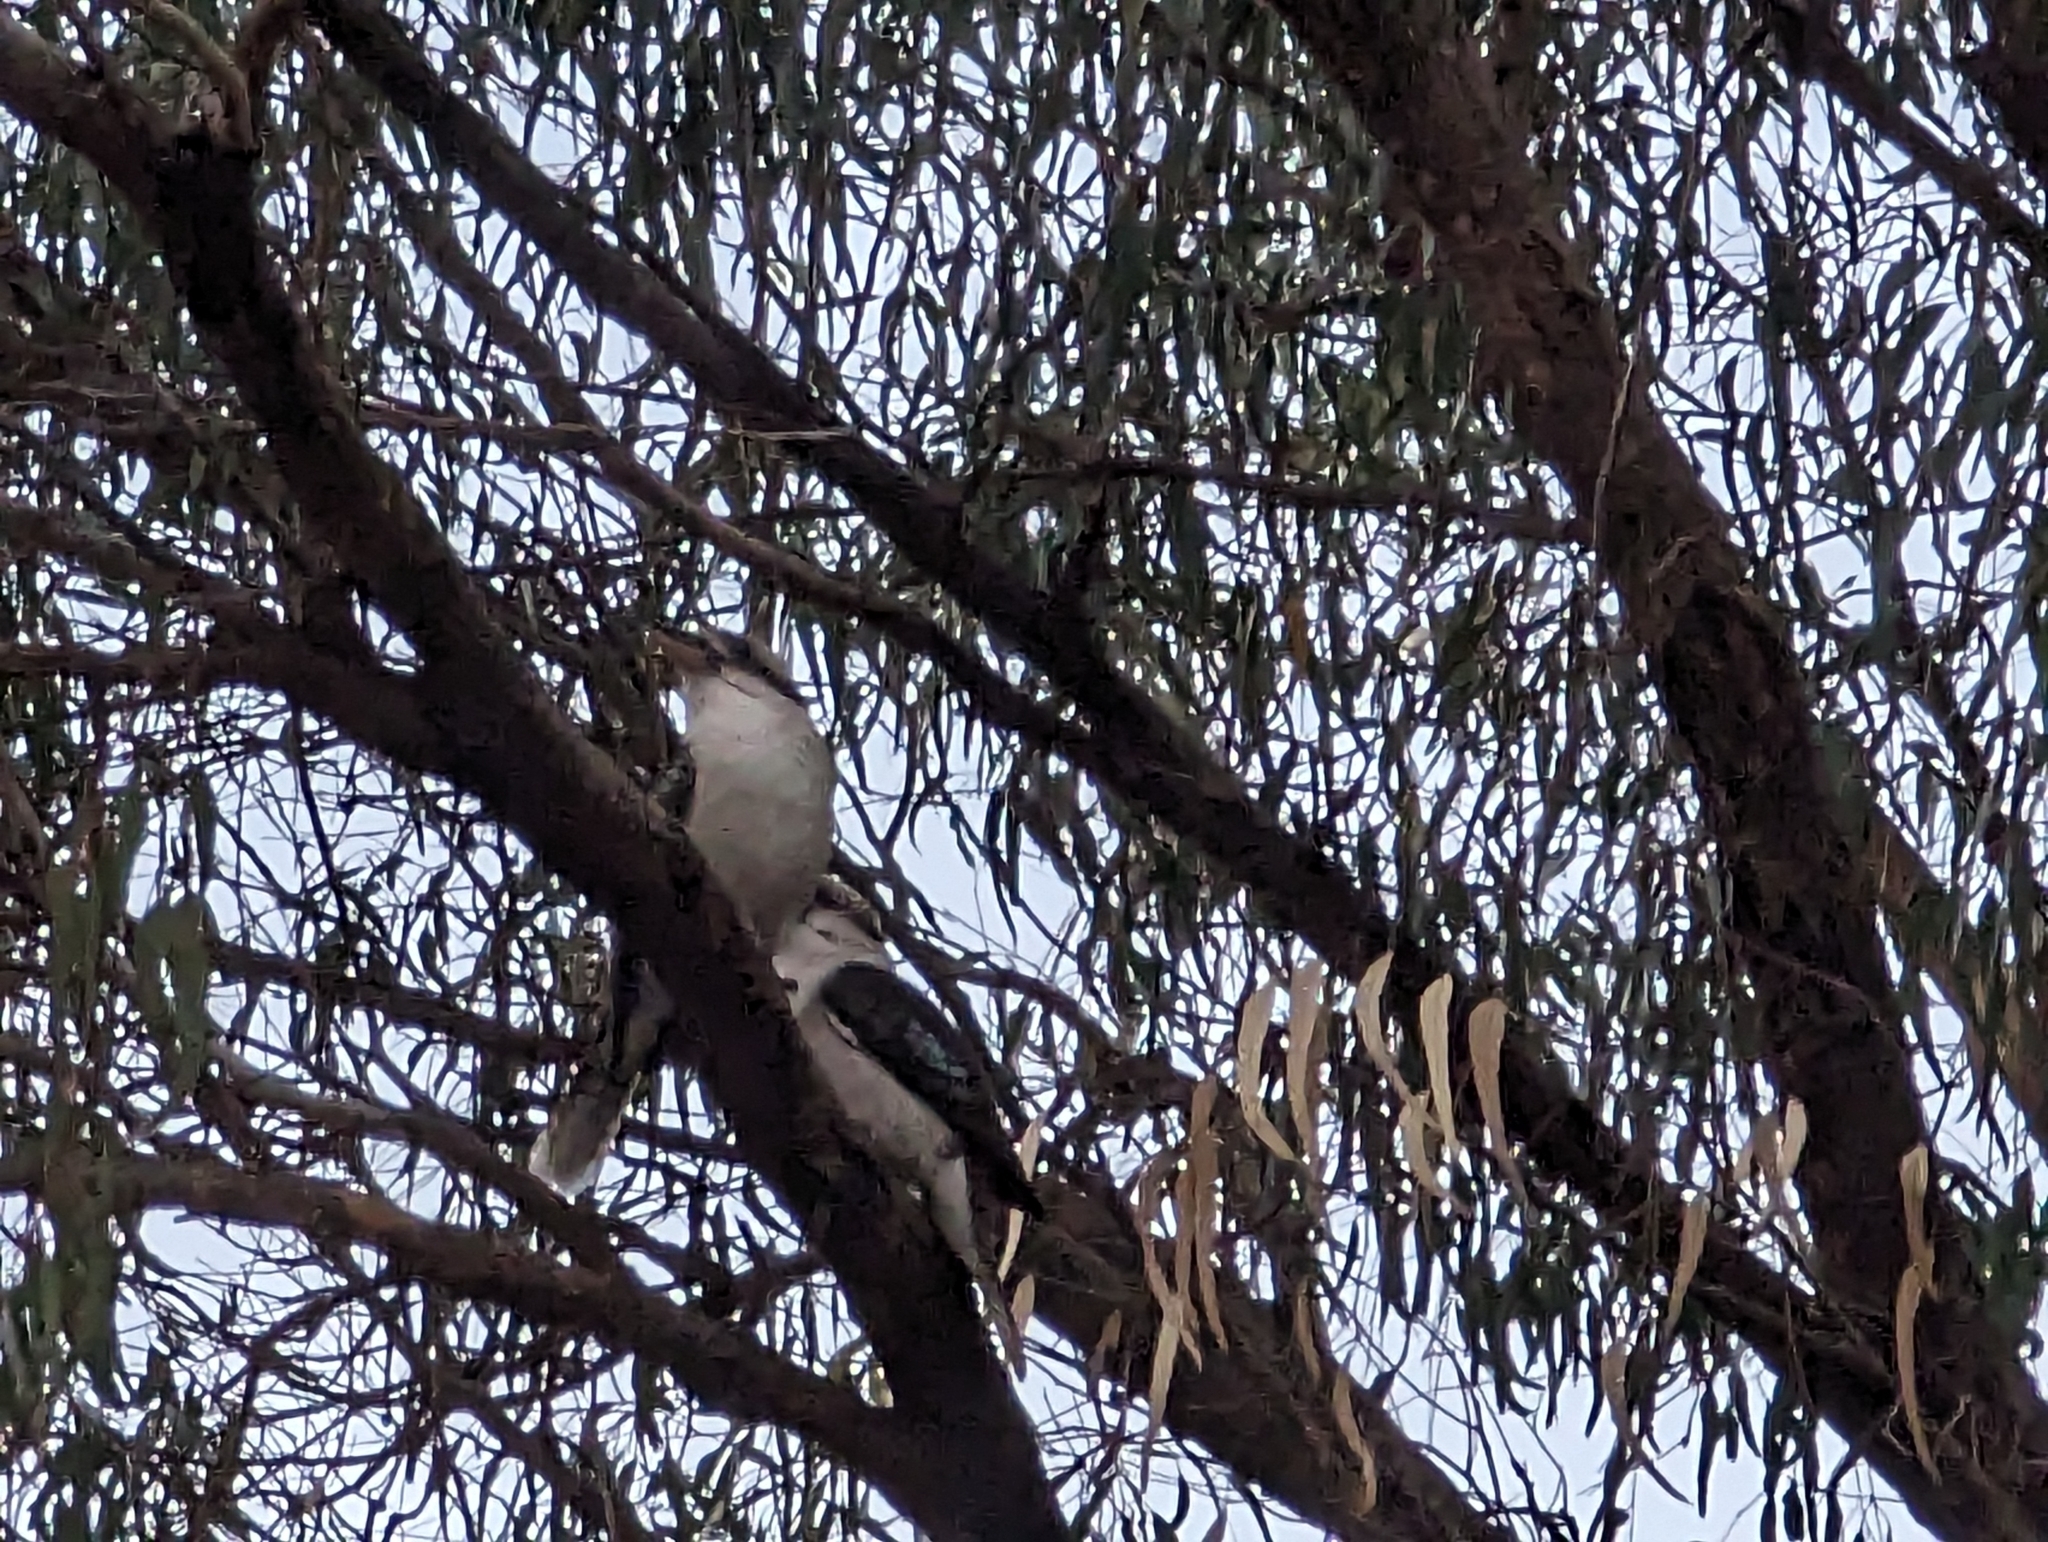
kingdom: Animalia
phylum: Chordata
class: Aves
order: Coraciiformes
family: Alcedinidae
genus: Dacelo
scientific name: Dacelo novaeguineae
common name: Laughing kookaburra
